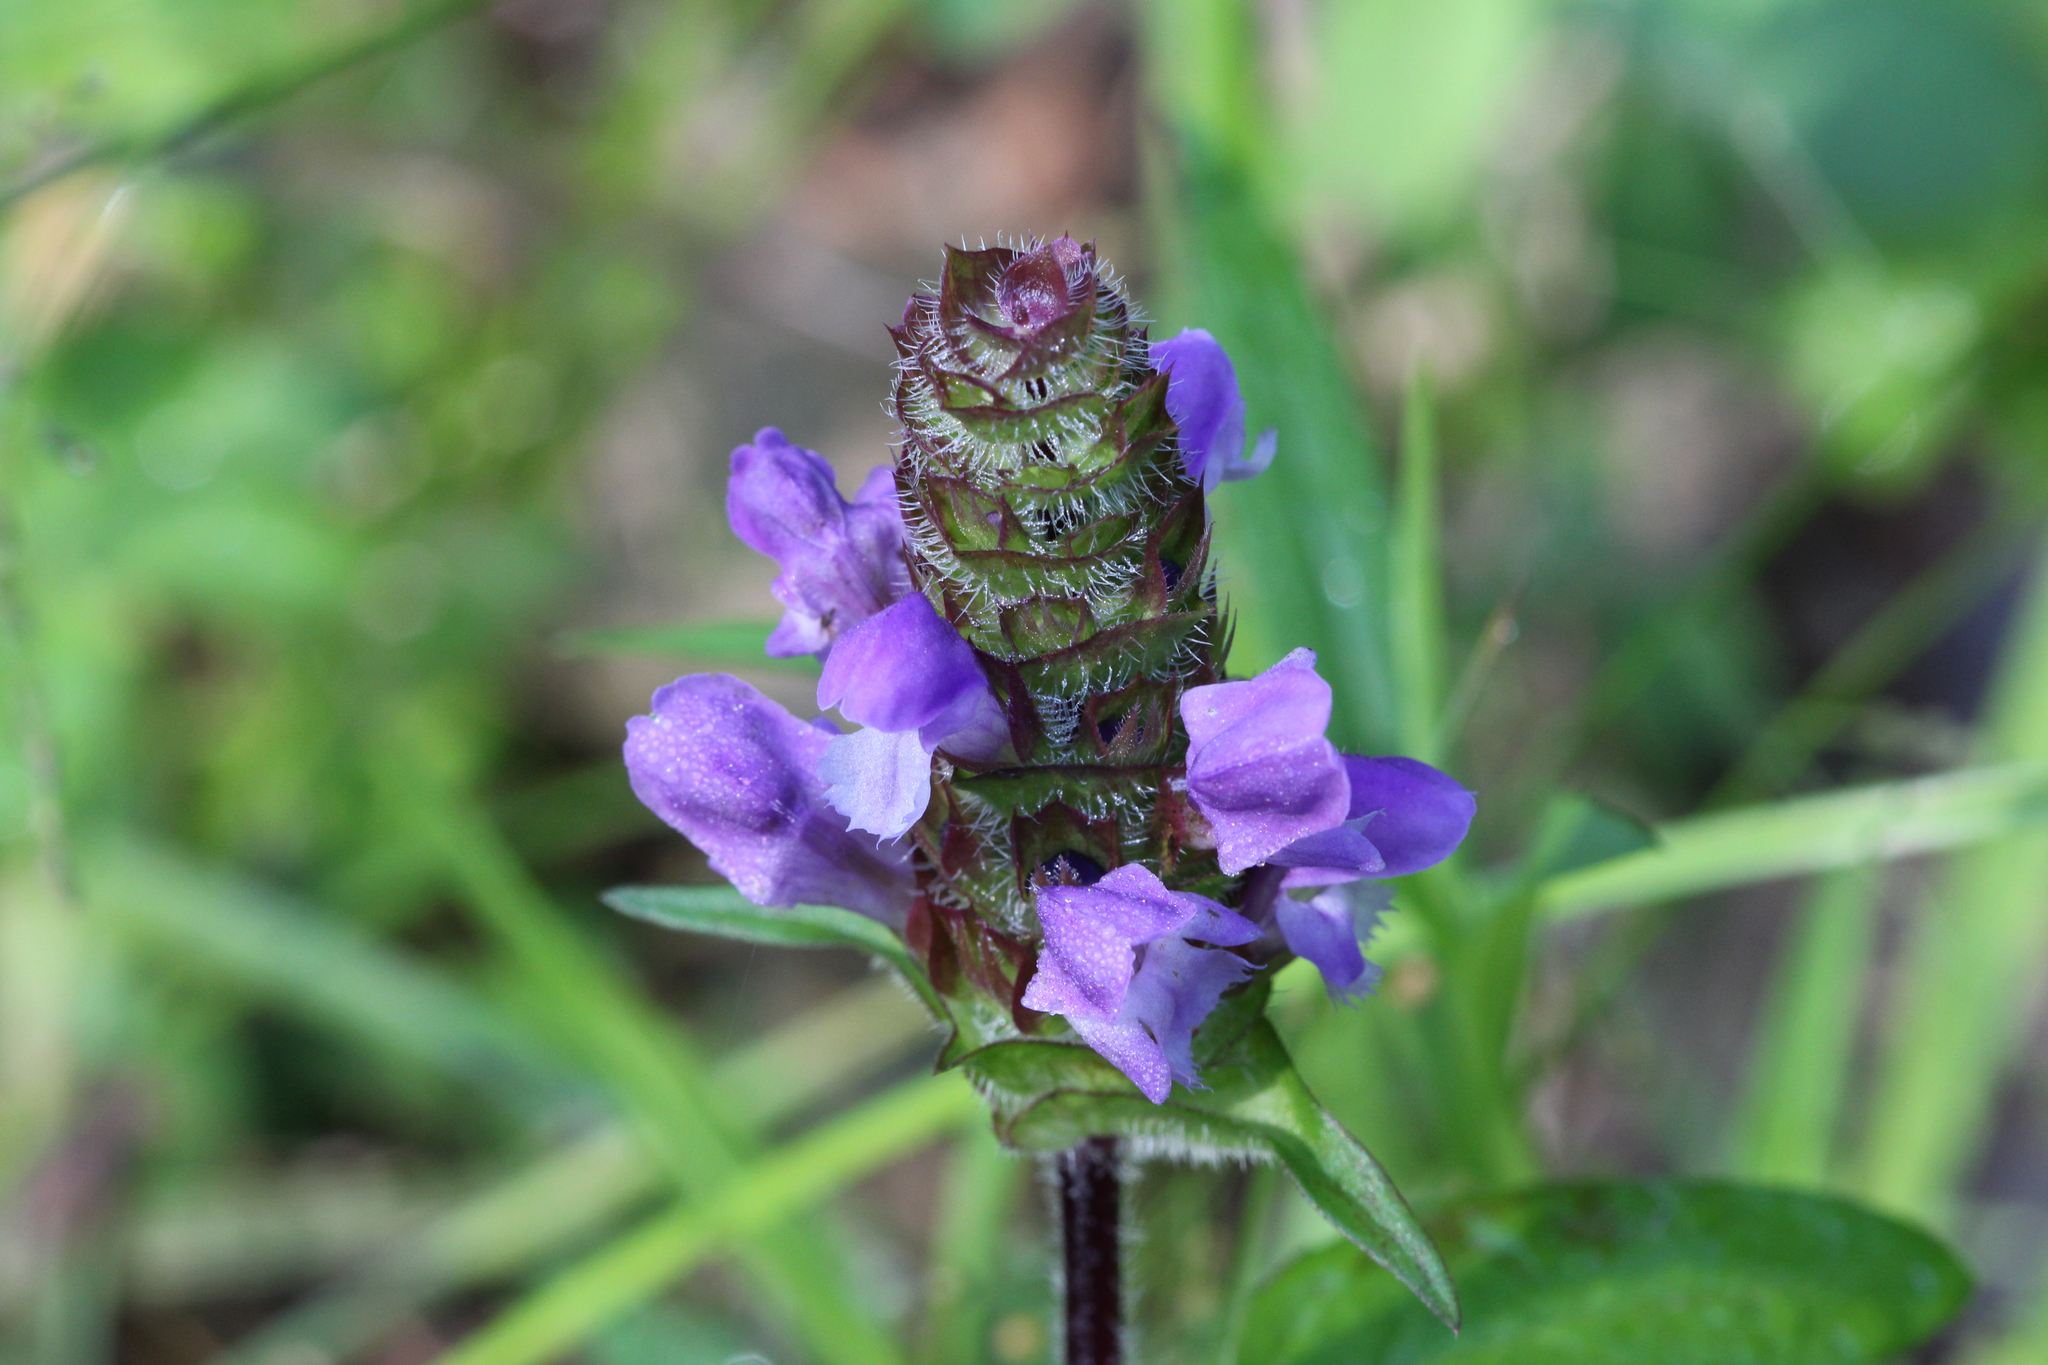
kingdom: Plantae
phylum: Tracheophyta
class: Magnoliopsida
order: Lamiales
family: Lamiaceae
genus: Prunella
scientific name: Prunella vulgaris
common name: Heal-all
